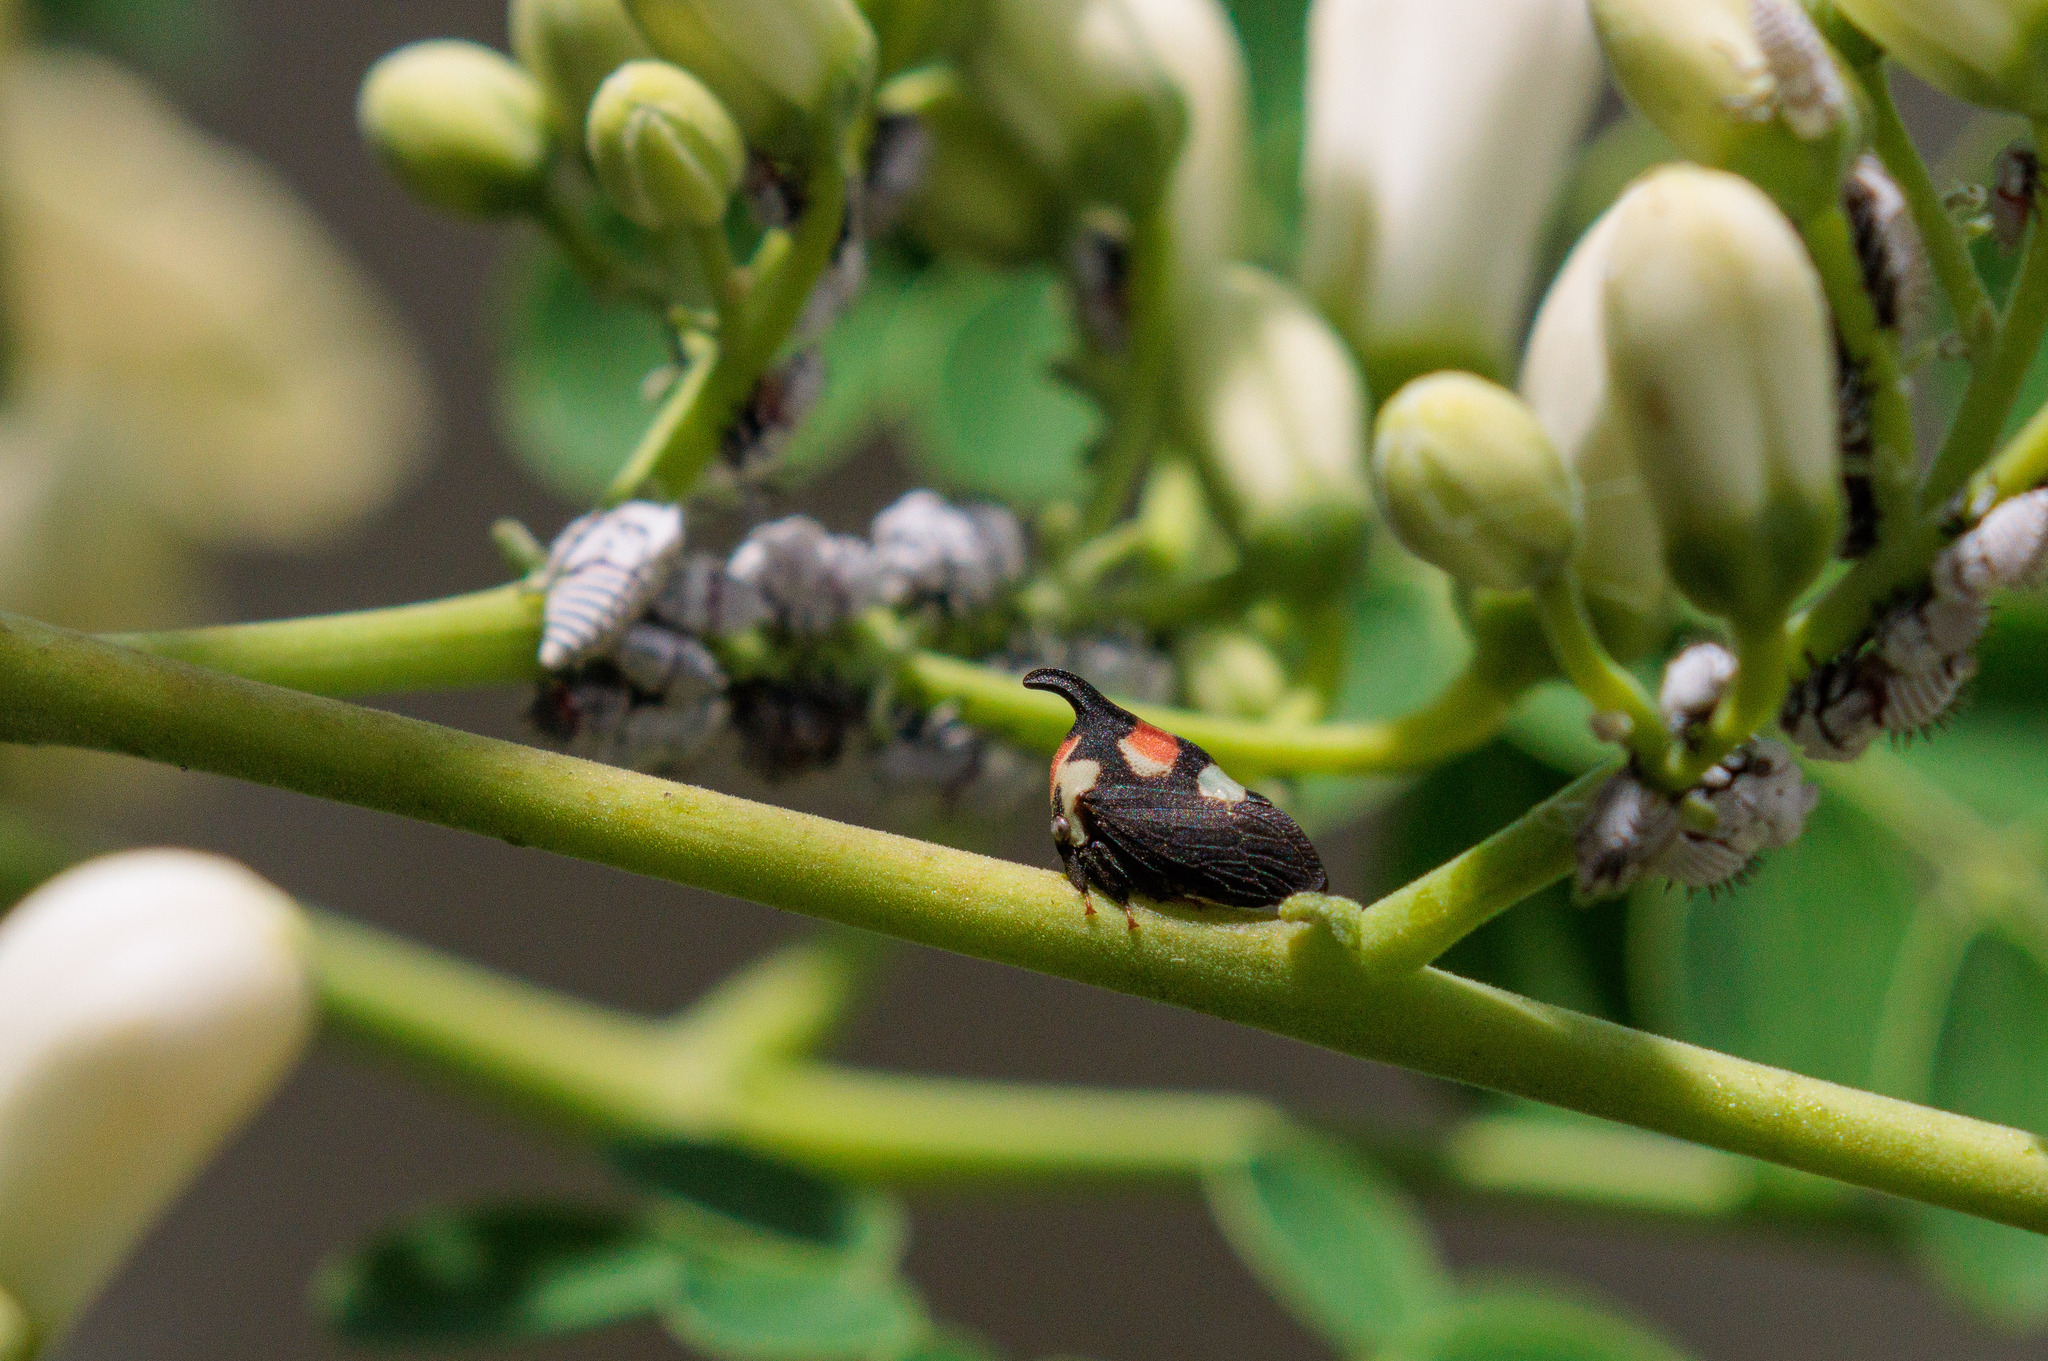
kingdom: Animalia
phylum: Arthropoda
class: Insecta
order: Hemiptera
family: Membracidae
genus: Enchophyllum
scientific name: Enchophyllum quinquemaculata
